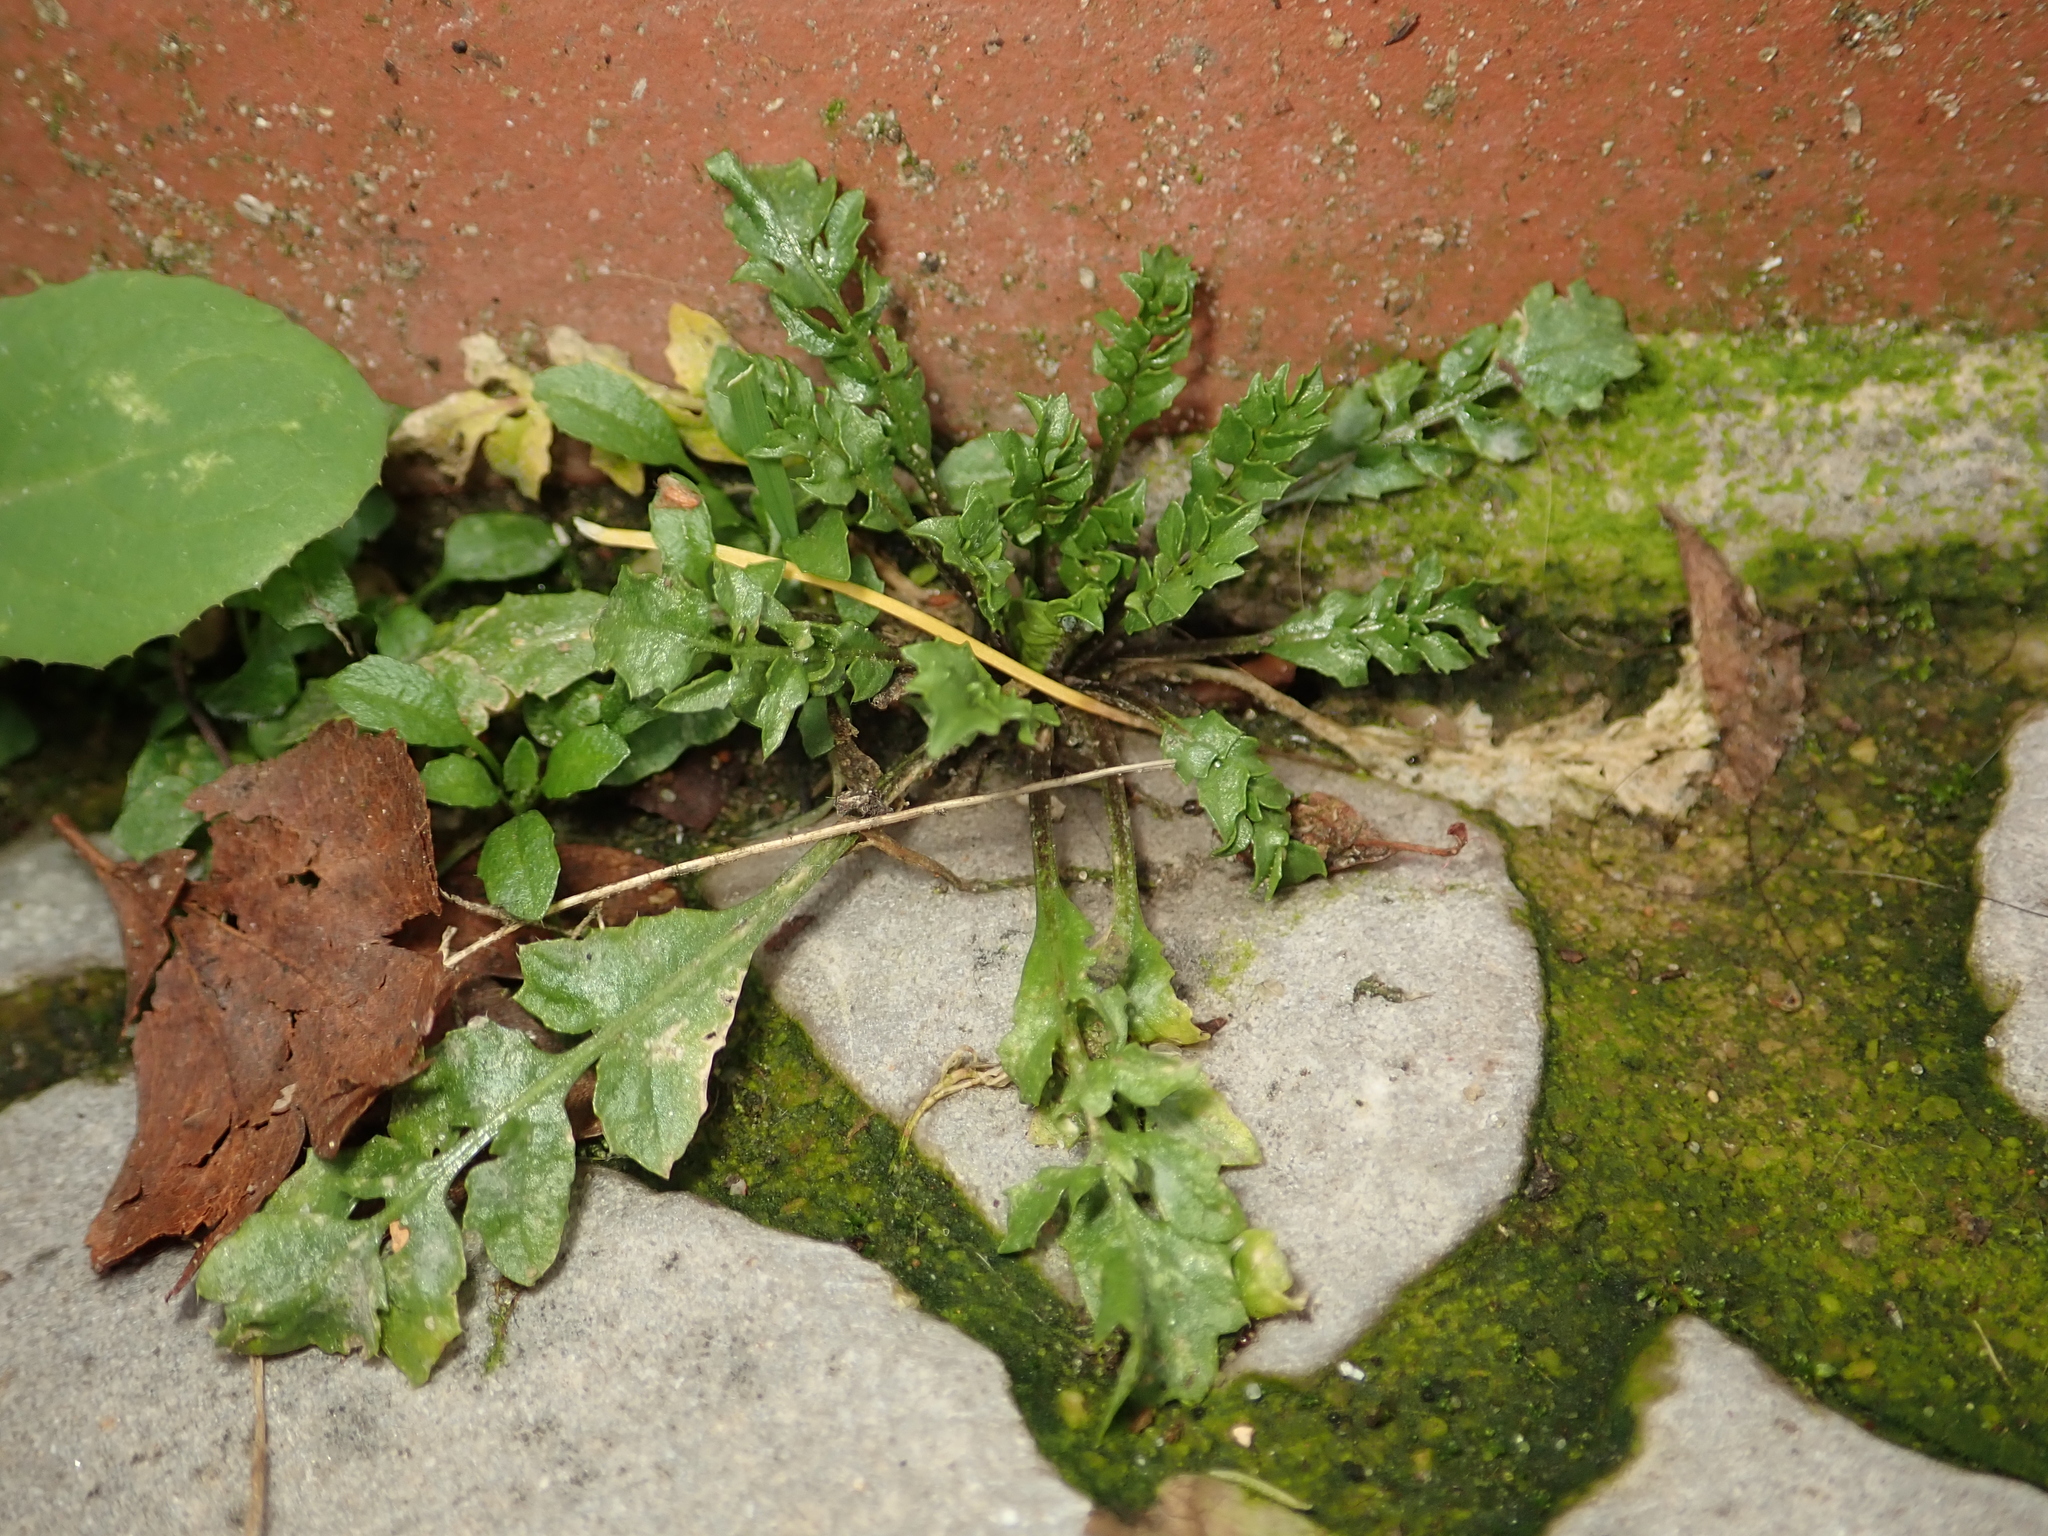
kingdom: Plantae
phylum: Tracheophyta
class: Magnoliopsida
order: Brassicales
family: Brassicaceae
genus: Capsella
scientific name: Capsella bursa-pastoris
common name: Shepherd's purse
